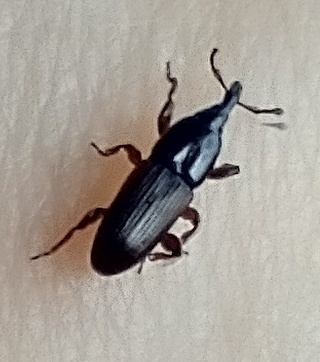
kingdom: Animalia
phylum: Arthropoda
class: Insecta
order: Coleoptera
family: Curculionidae
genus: Mesites
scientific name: Mesites fusiformis
